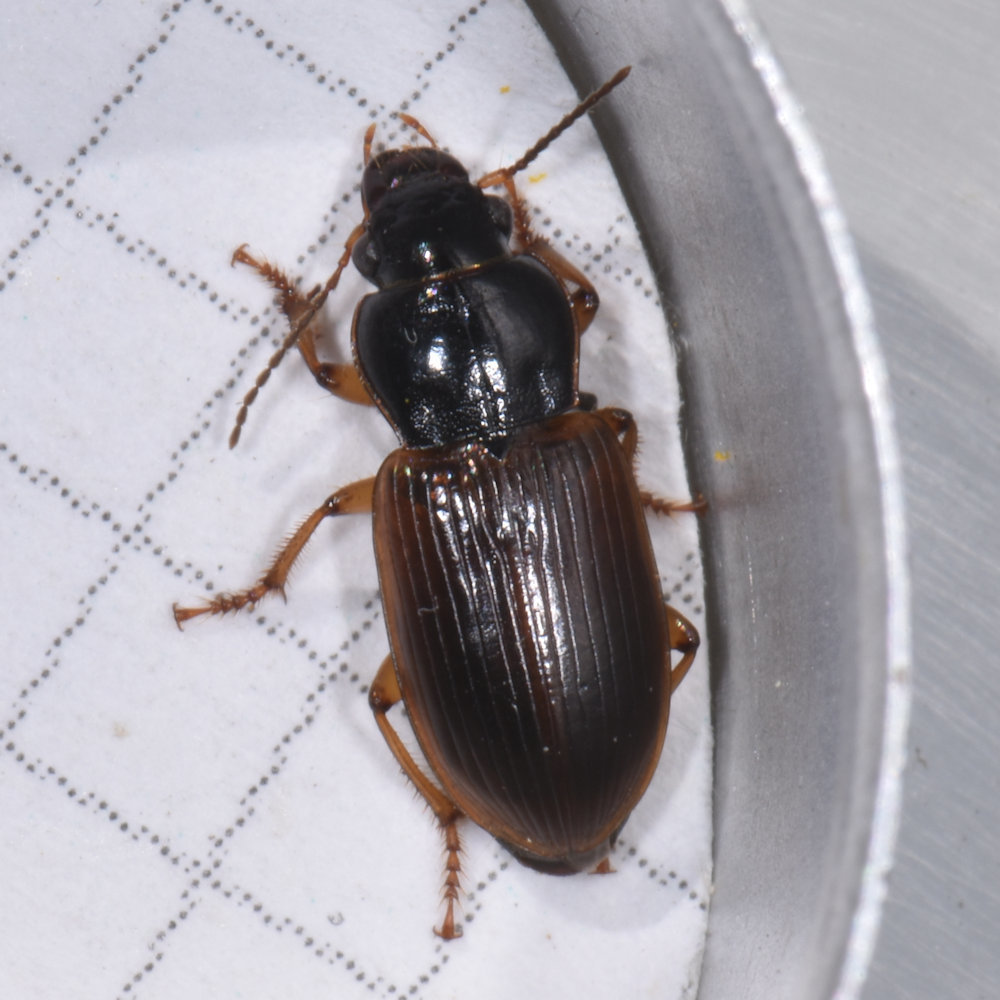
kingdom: Animalia
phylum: Arthropoda
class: Insecta
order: Coleoptera
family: Carabidae
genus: Anisodactylus
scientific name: Anisodactylus sanctaecrucis
